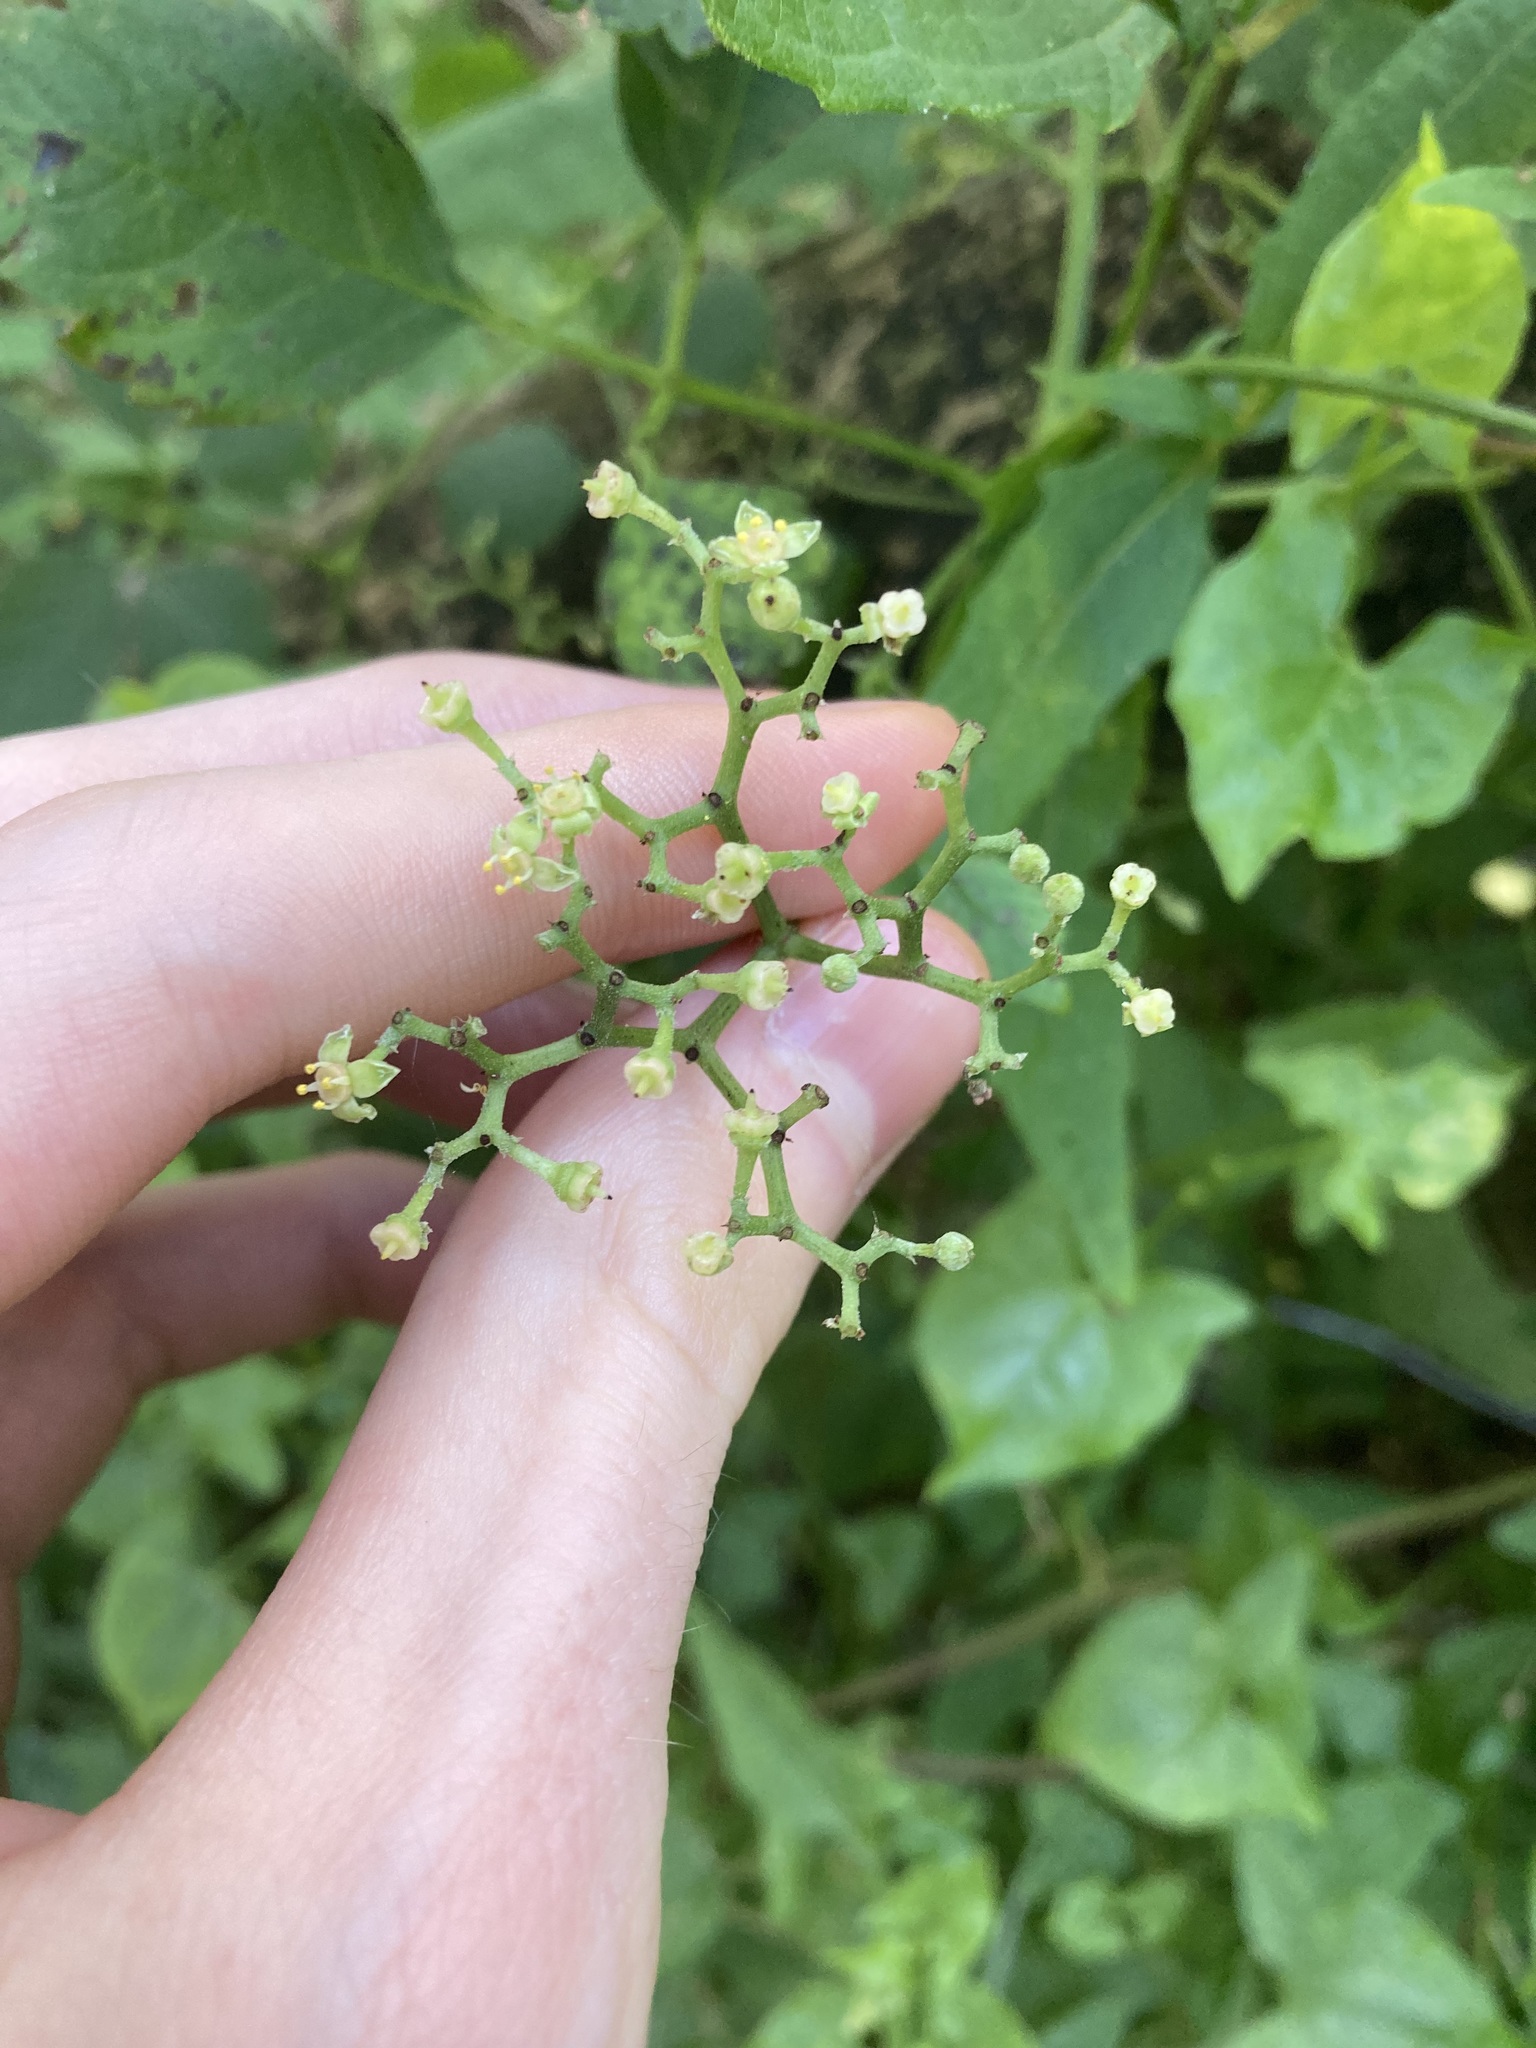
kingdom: Plantae
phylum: Tracheophyta
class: Magnoliopsida
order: Vitales
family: Vitaceae
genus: Causonis
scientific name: Causonis clematidea
